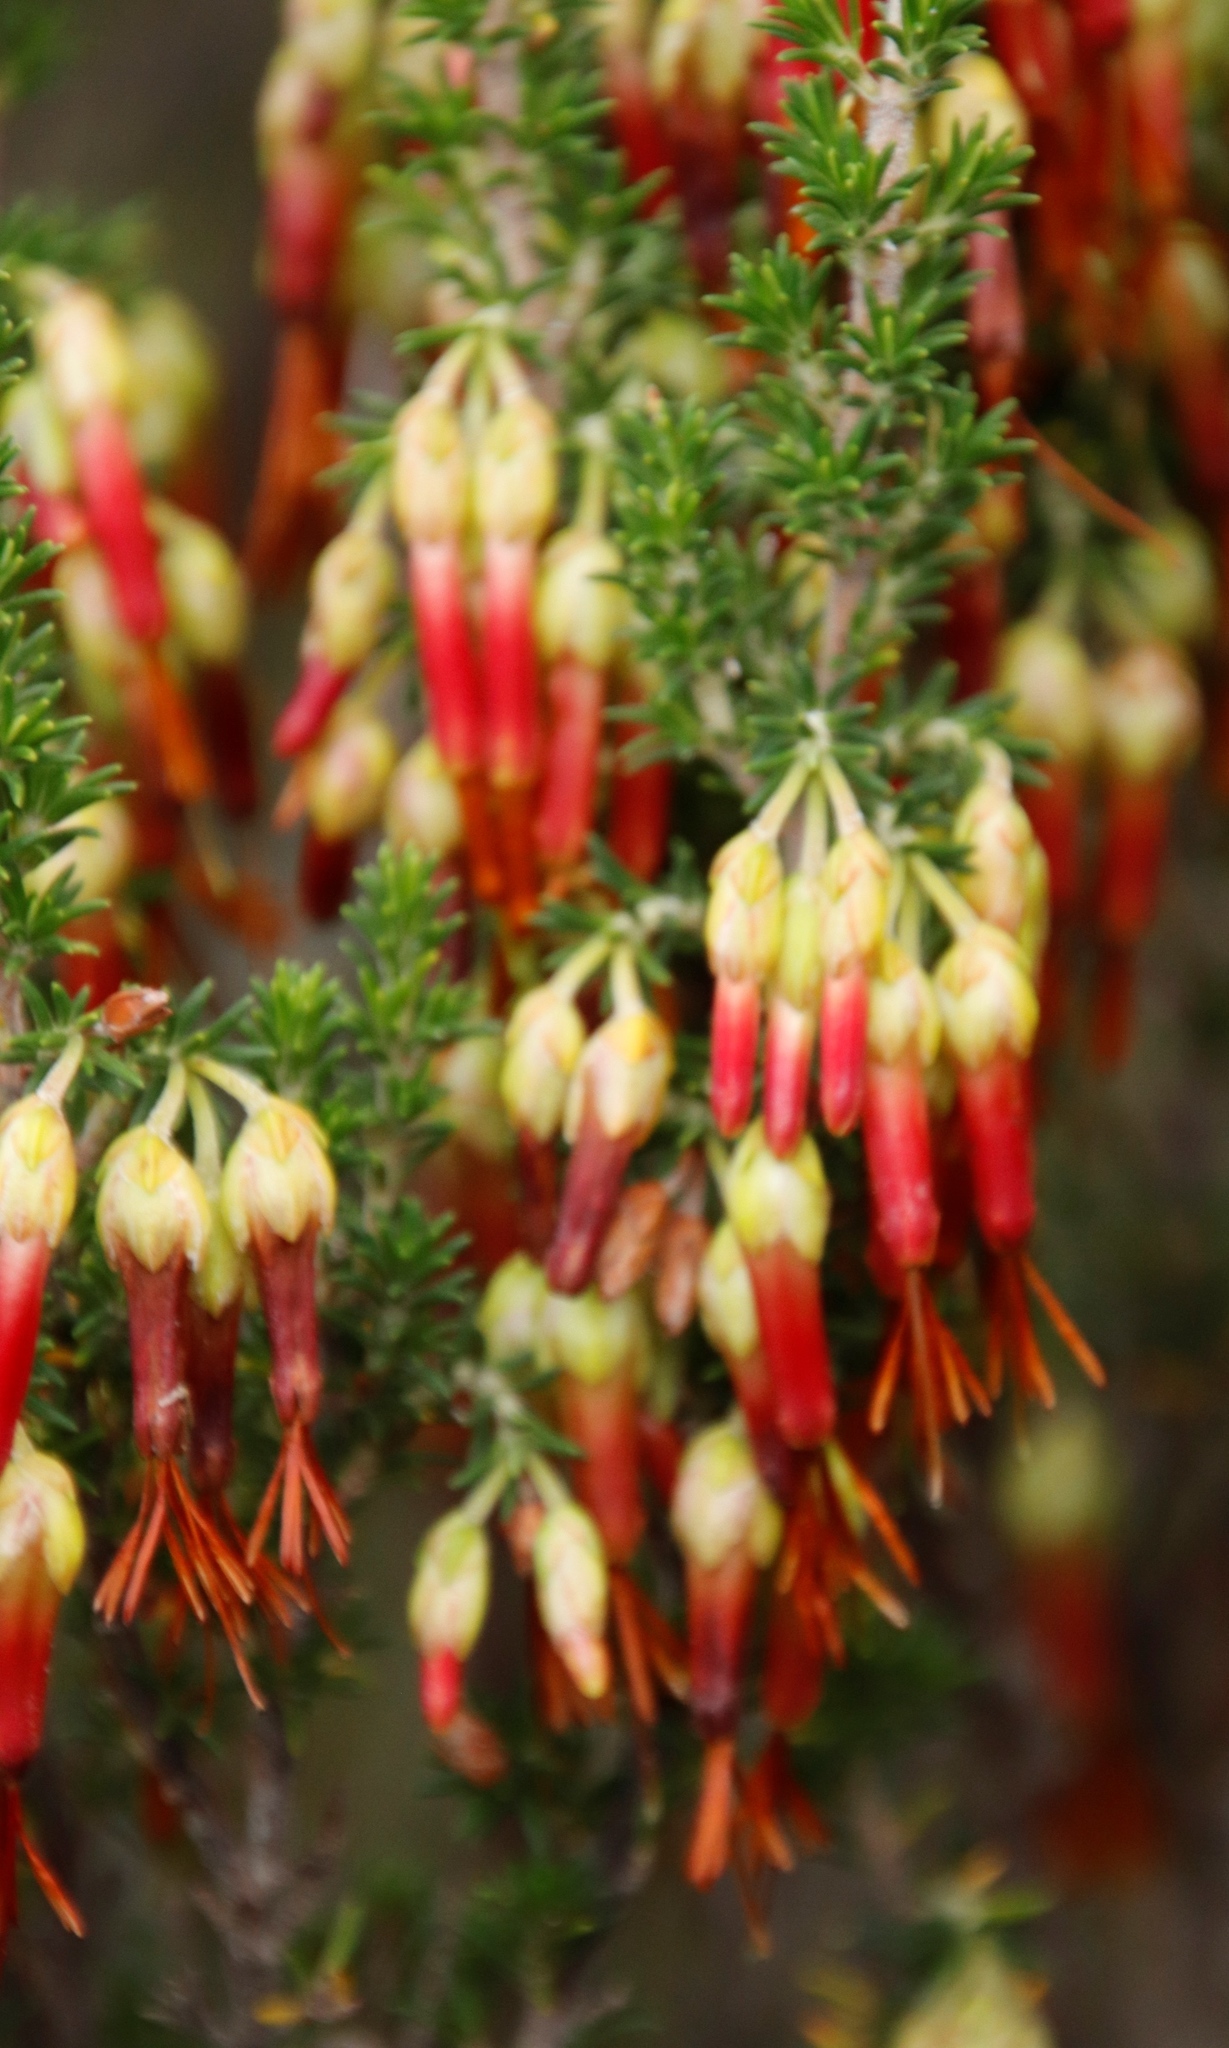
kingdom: Plantae
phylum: Tracheophyta
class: Magnoliopsida
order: Ericales
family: Ericaceae
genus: Erica
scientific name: Erica coccinea
